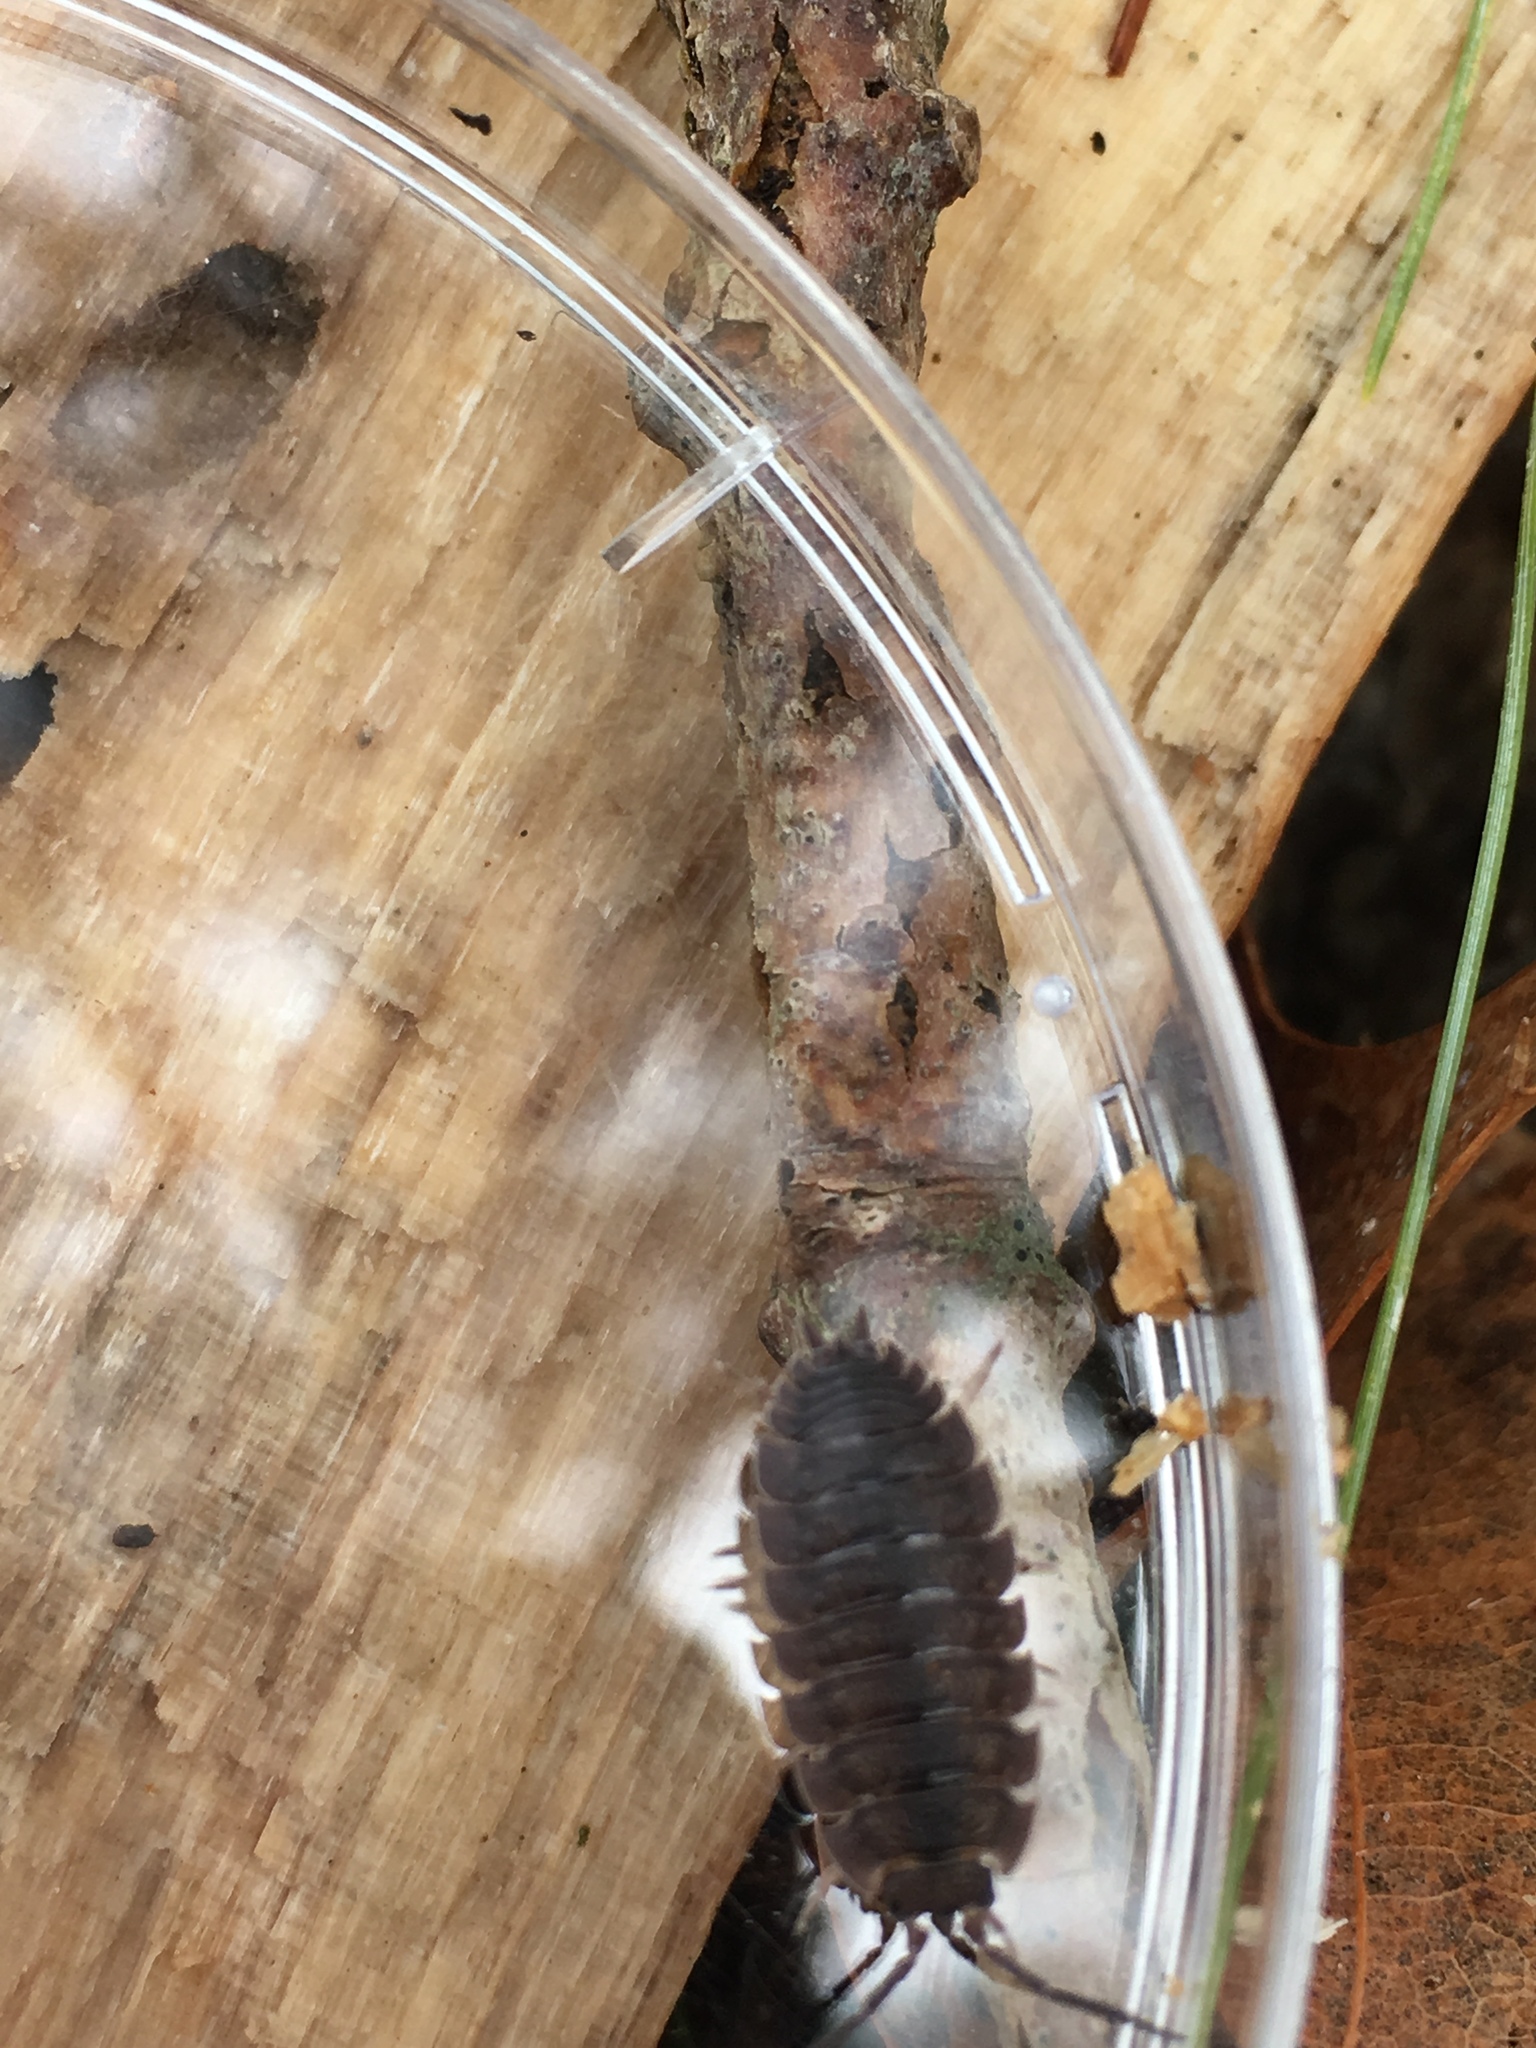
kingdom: Animalia
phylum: Arthropoda
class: Malacostraca
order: Isopoda
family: Porcellionidae
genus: Porcellio
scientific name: Porcellio scaber
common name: Common rough woodlouse
